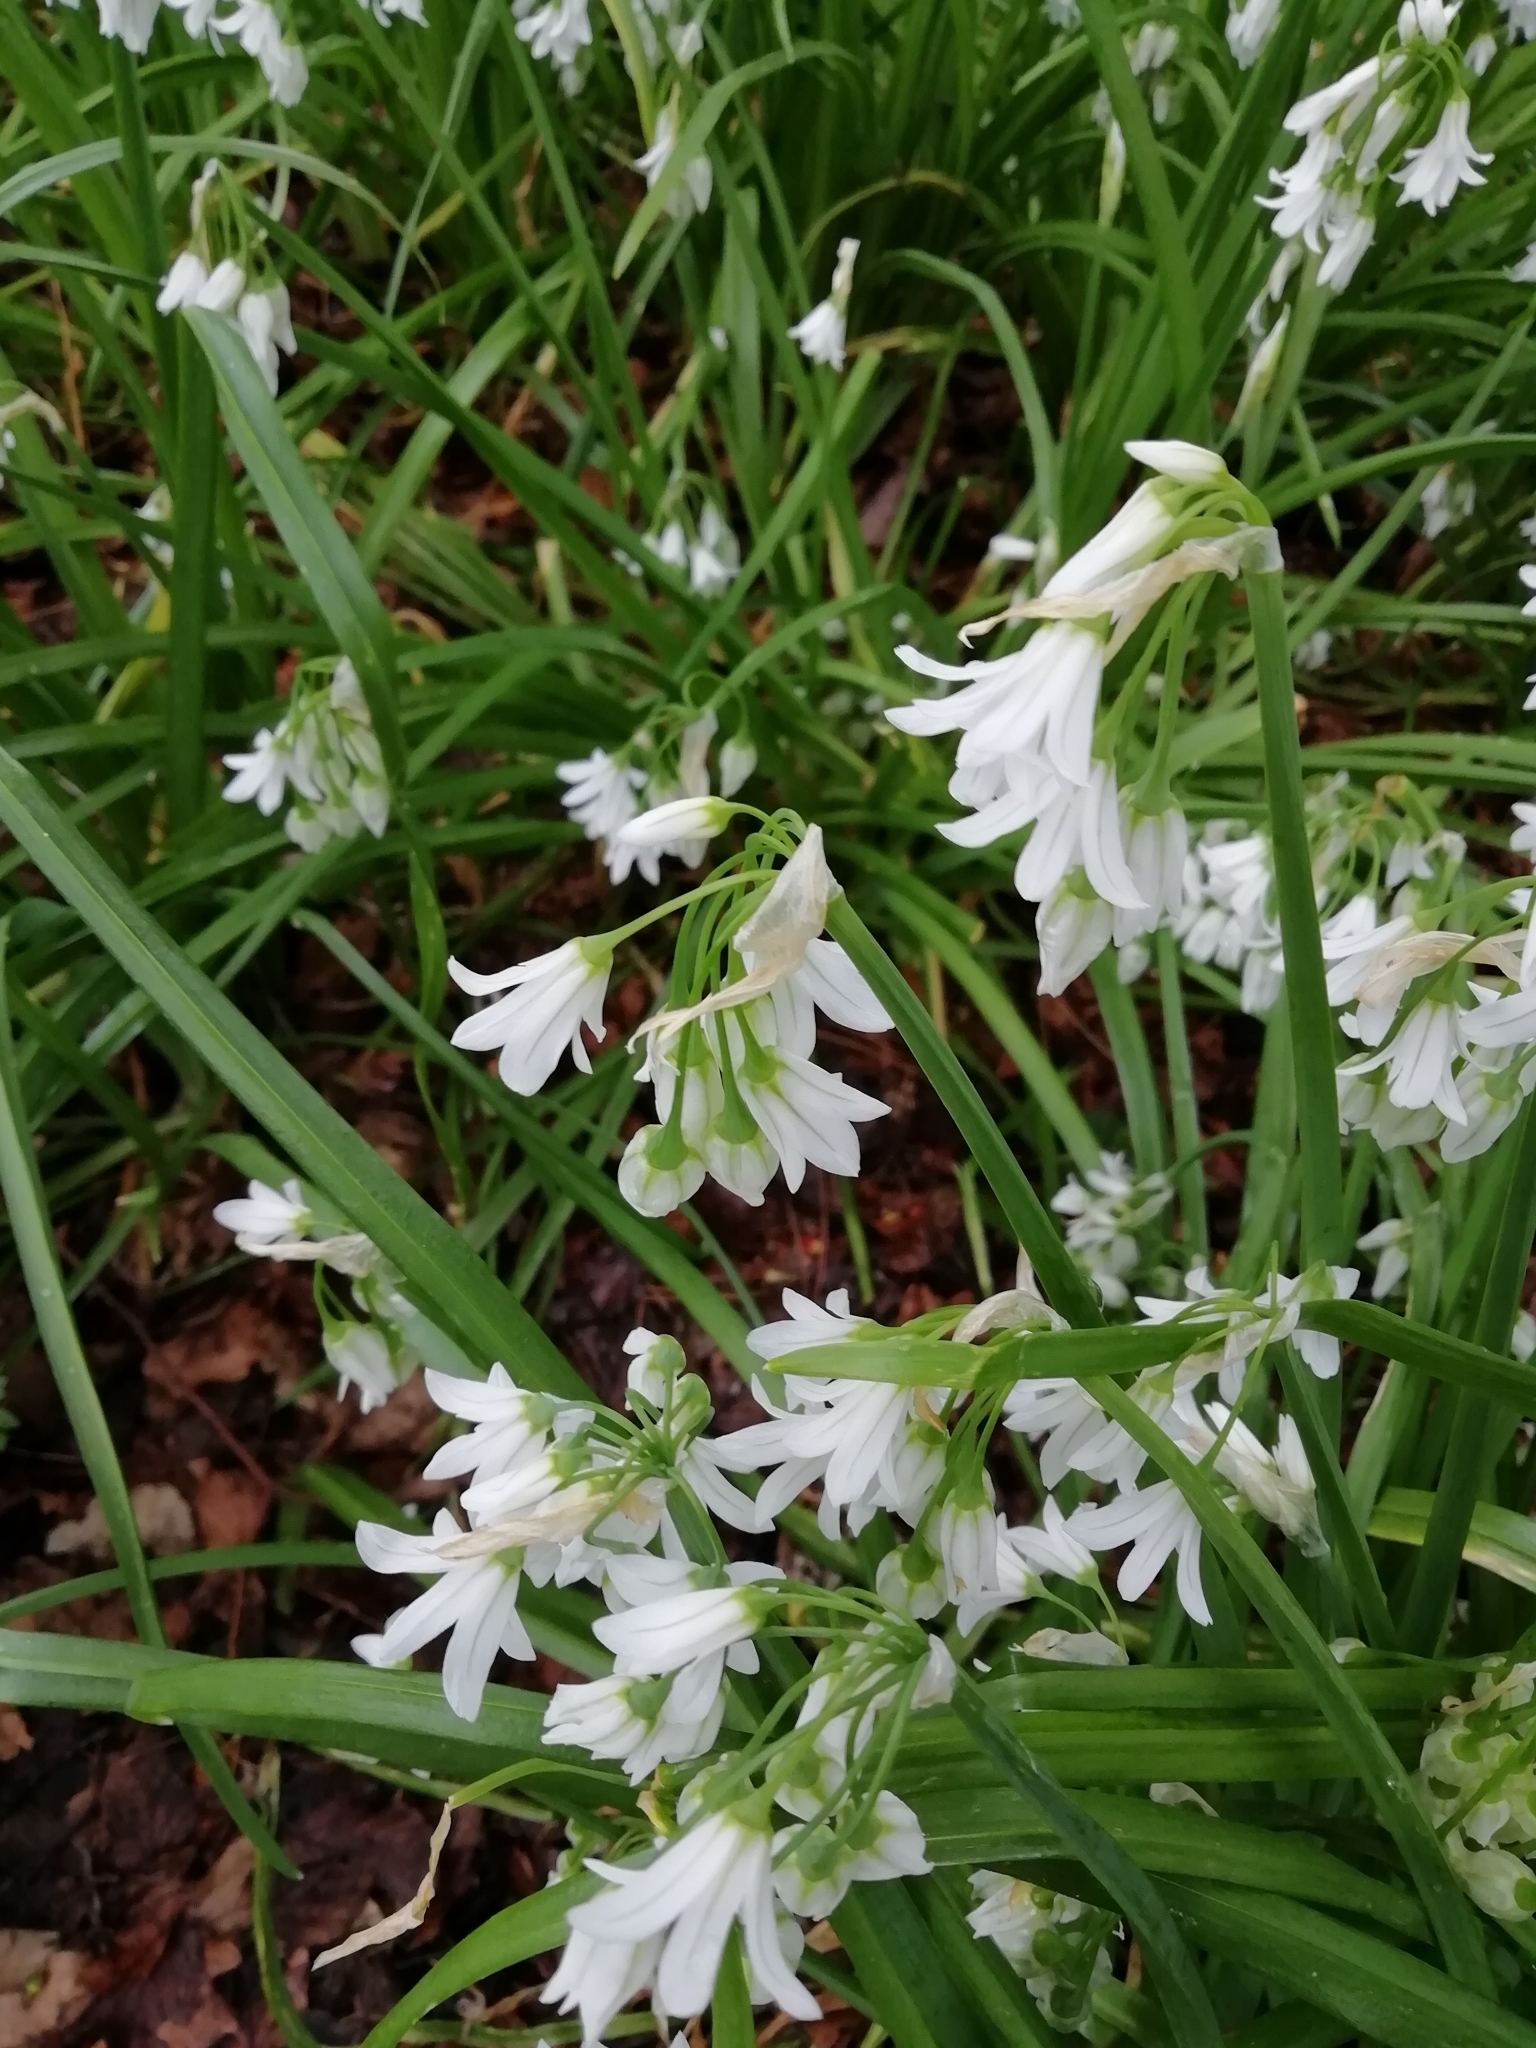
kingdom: Plantae
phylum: Tracheophyta
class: Liliopsida
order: Asparagales
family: Amaryllidaceae
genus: Allium
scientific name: Allium triquetrum
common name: Three-cornered garlic
